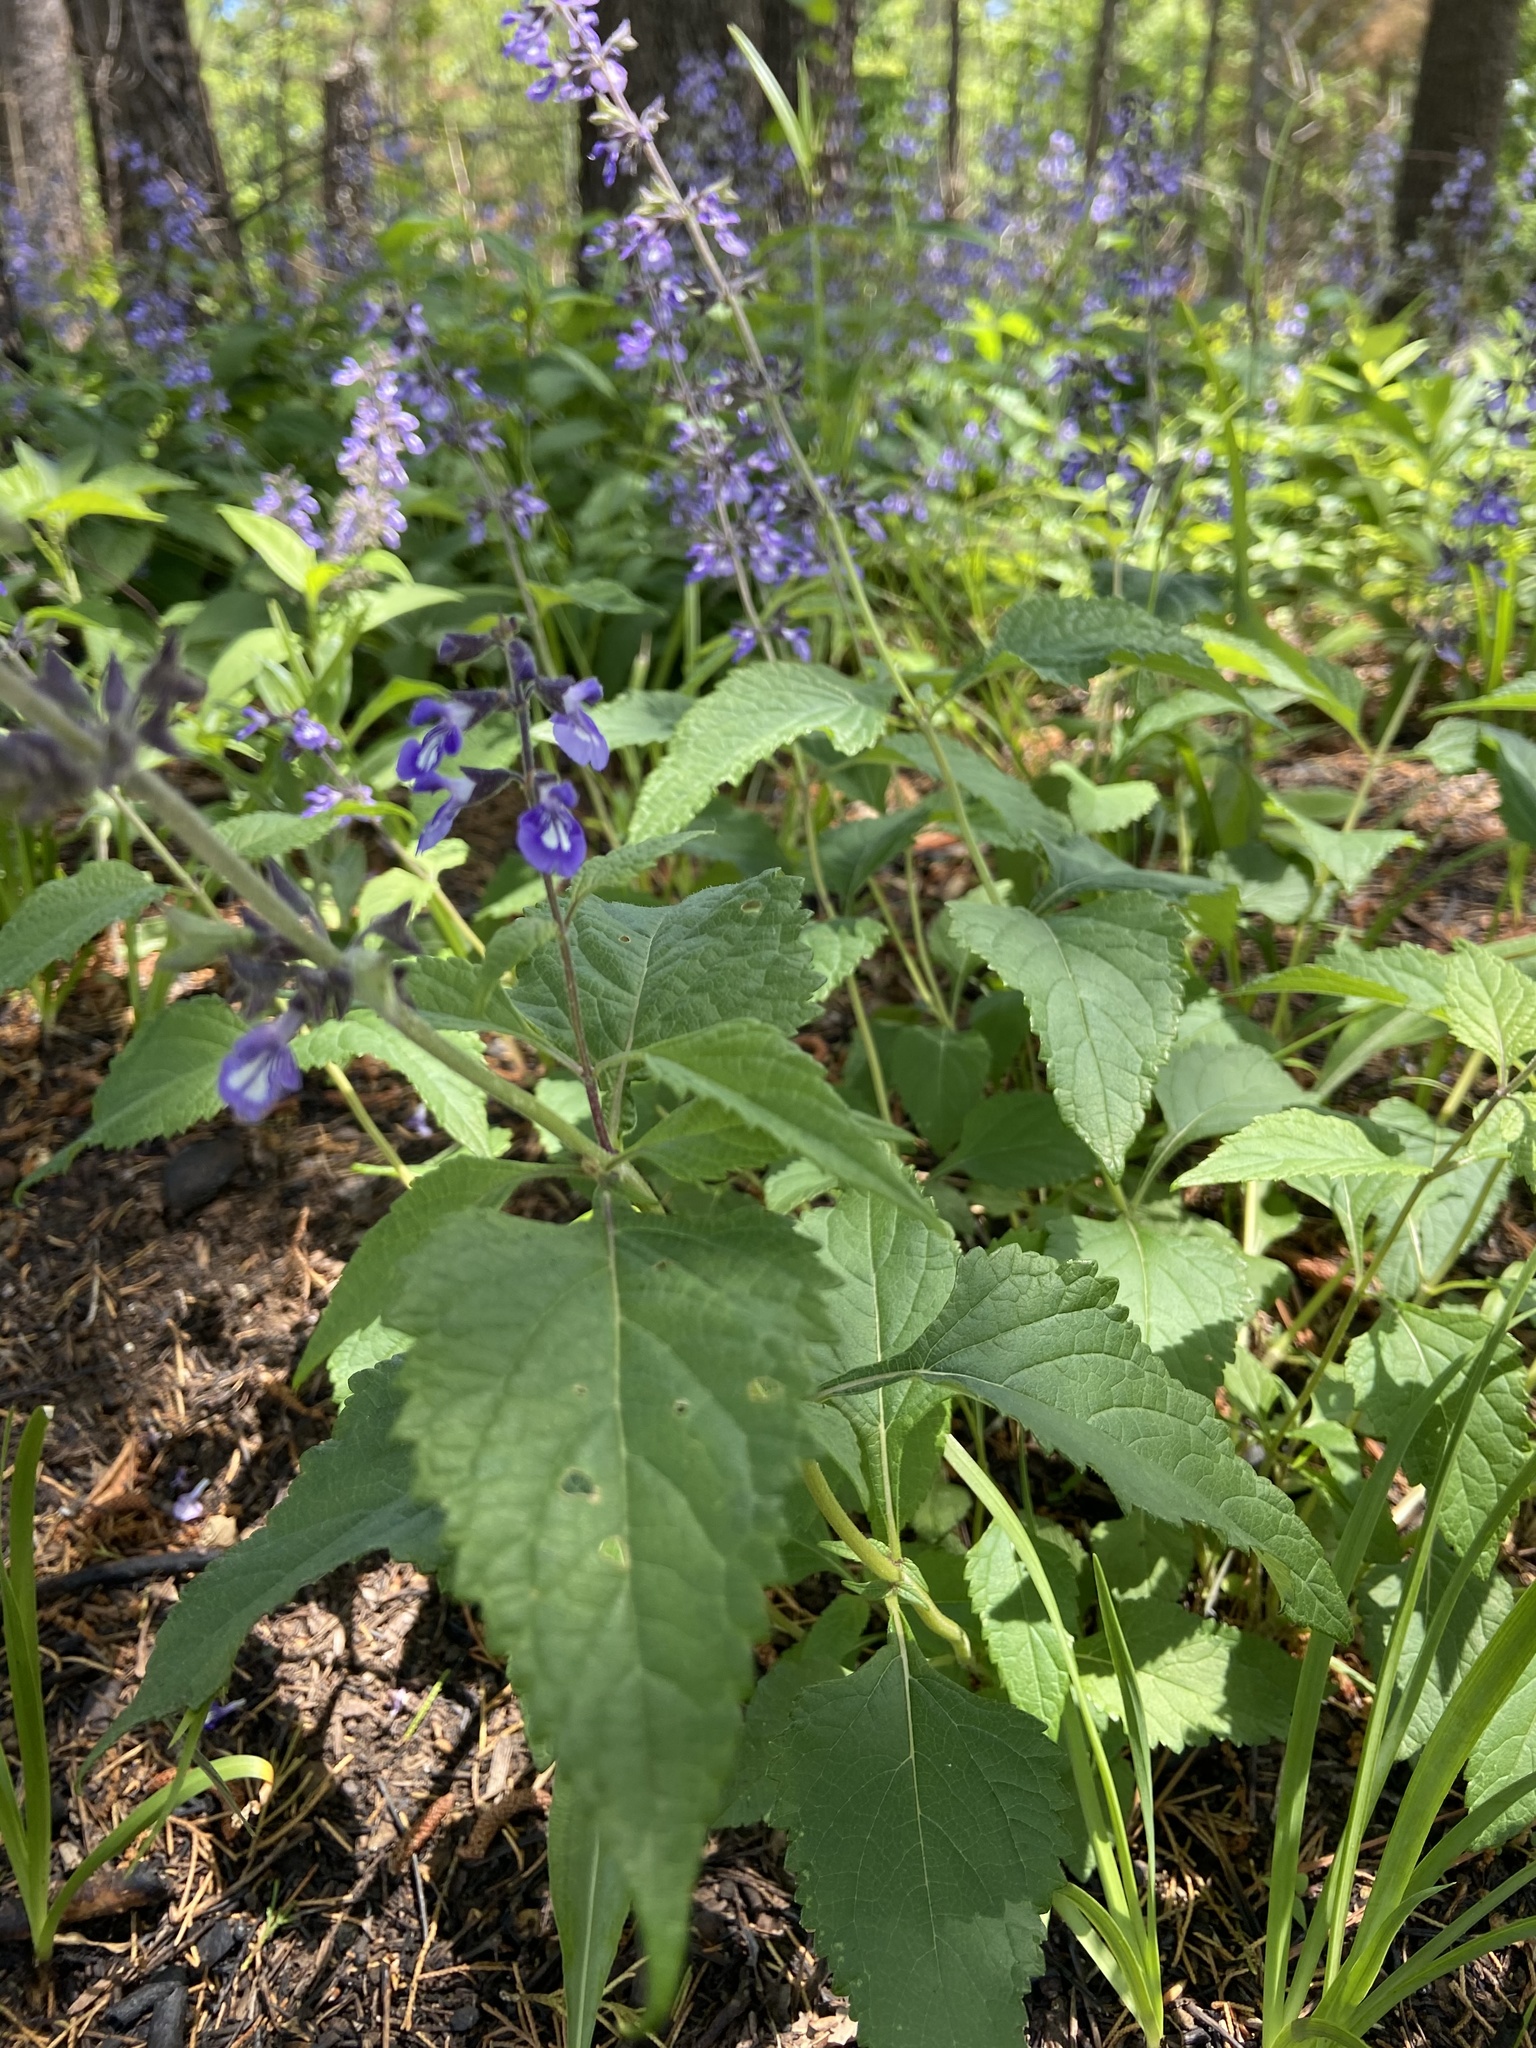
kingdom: Plantae
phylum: Tracheophyta
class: Magnoliopsida
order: Lamiales
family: Lamiaceae
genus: Salvia
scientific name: Salvia urticifolia
